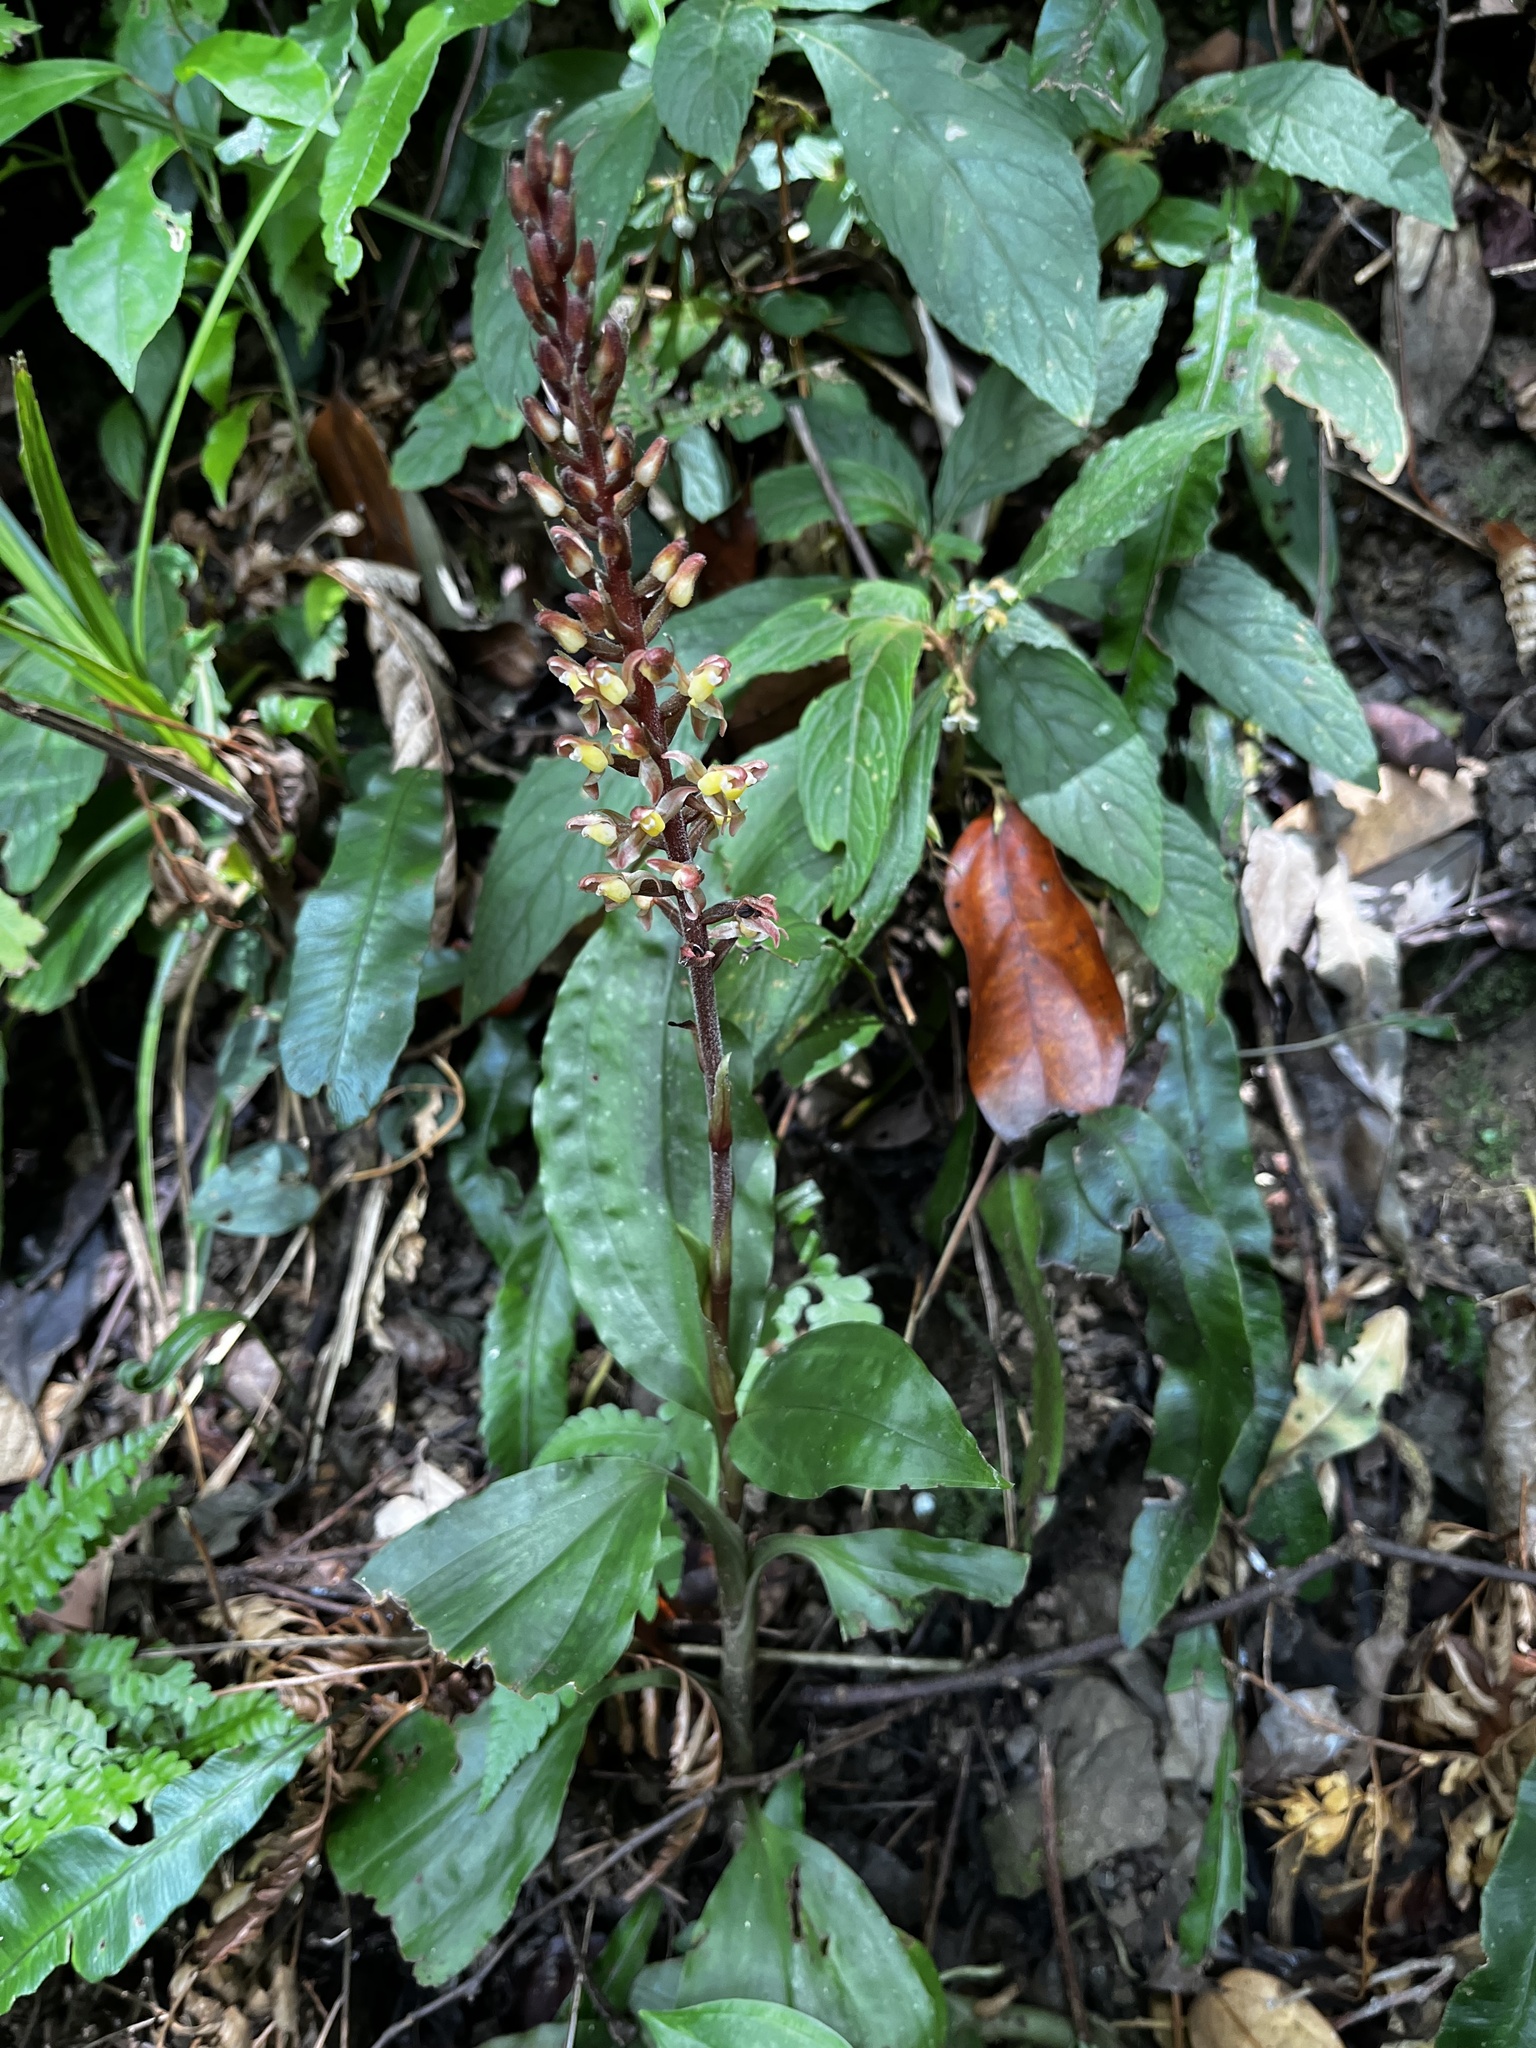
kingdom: Plantae
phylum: Tracheophyta
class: Liliopsida
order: Asparagales
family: Orchidaceae
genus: Goodyera
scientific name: Goodyera rubicunda
